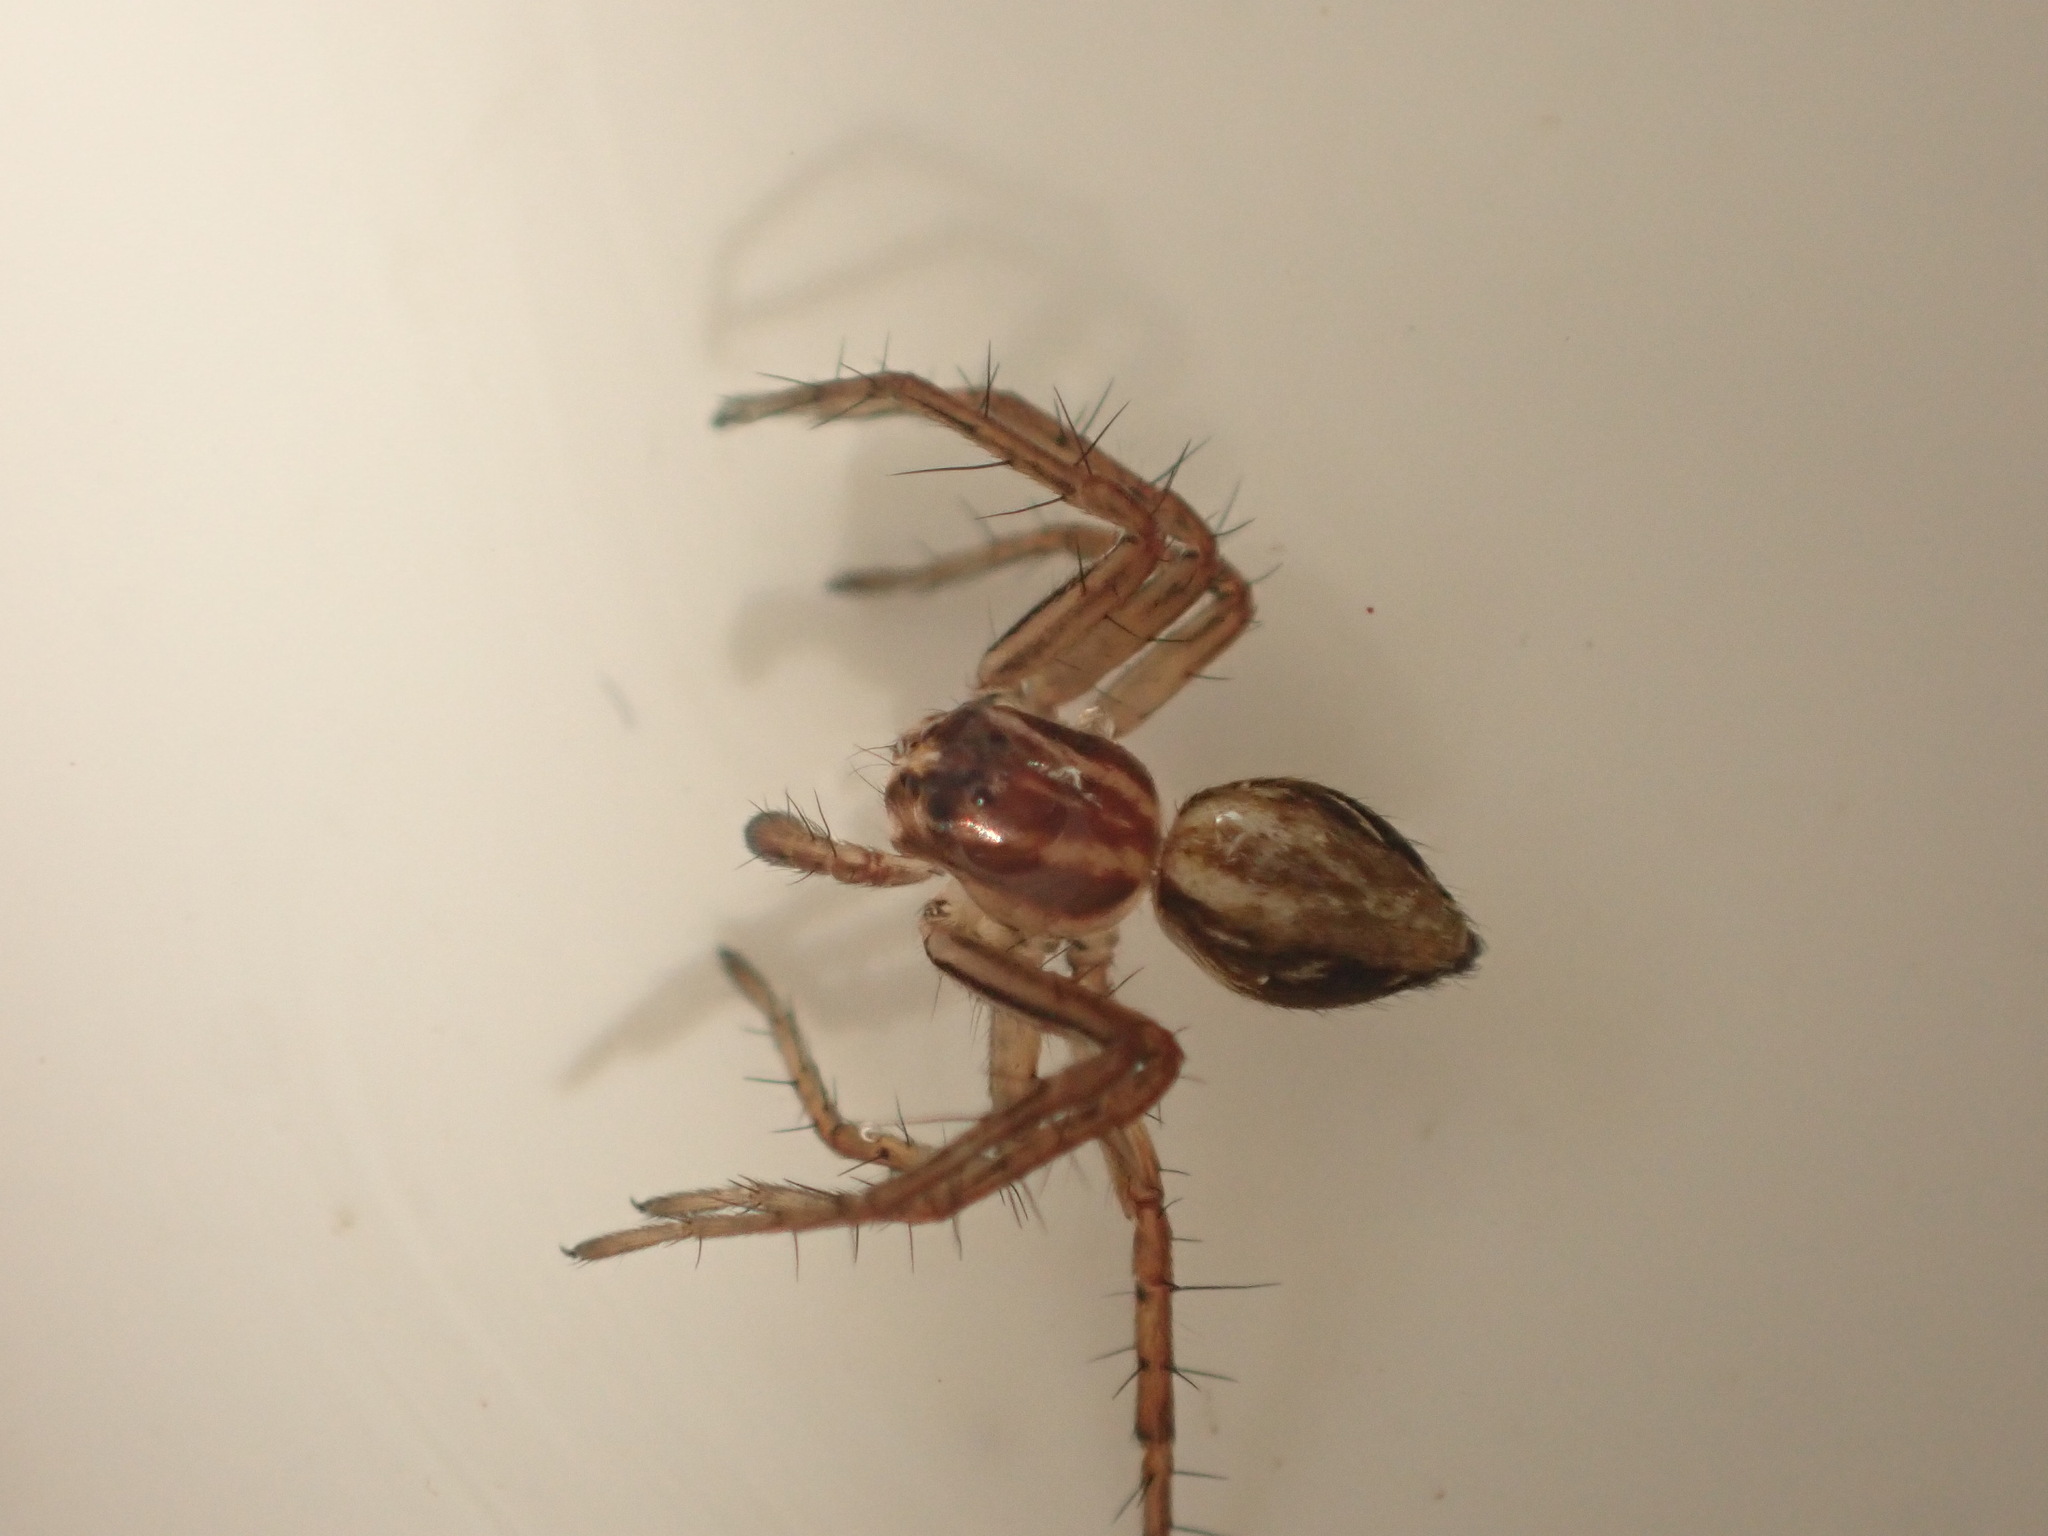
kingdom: Animalia
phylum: Arthropoda
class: Arachnida
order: Araneae
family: Oxyopidae
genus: Oxyopes
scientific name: Oxyopes gracilipes
